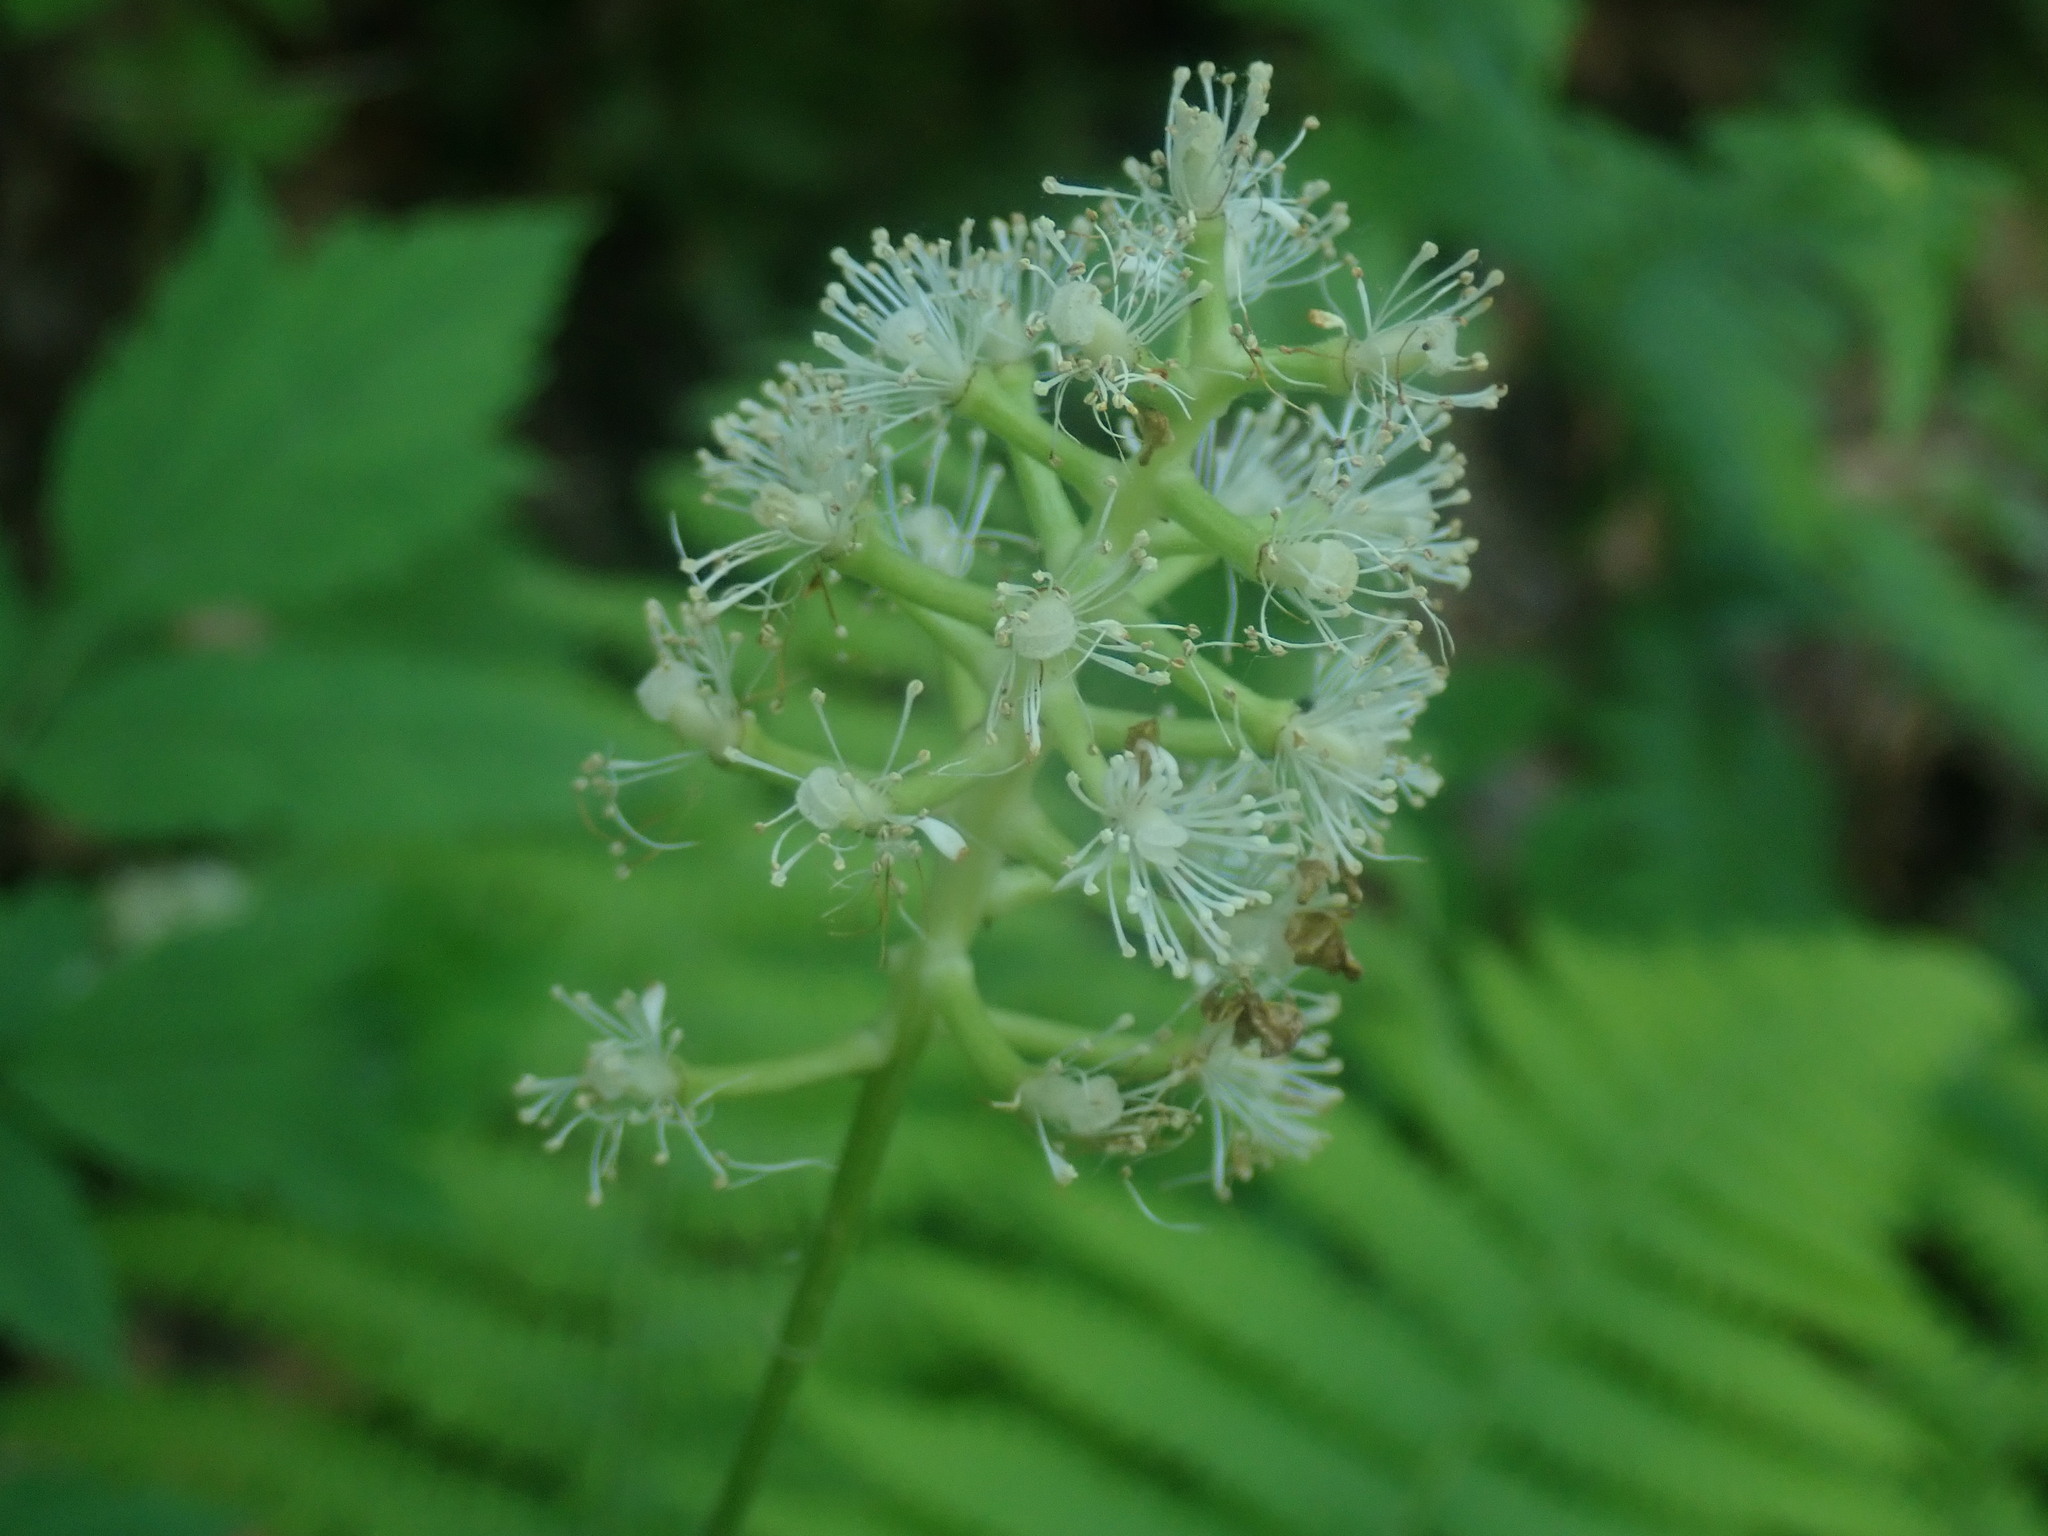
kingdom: Plantae
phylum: Tracheophyta
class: Magnoliopsida
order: Ranunculales
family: Ranunculaceae
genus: Actaea
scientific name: Actaea pachypoda
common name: Doll's-eyes
